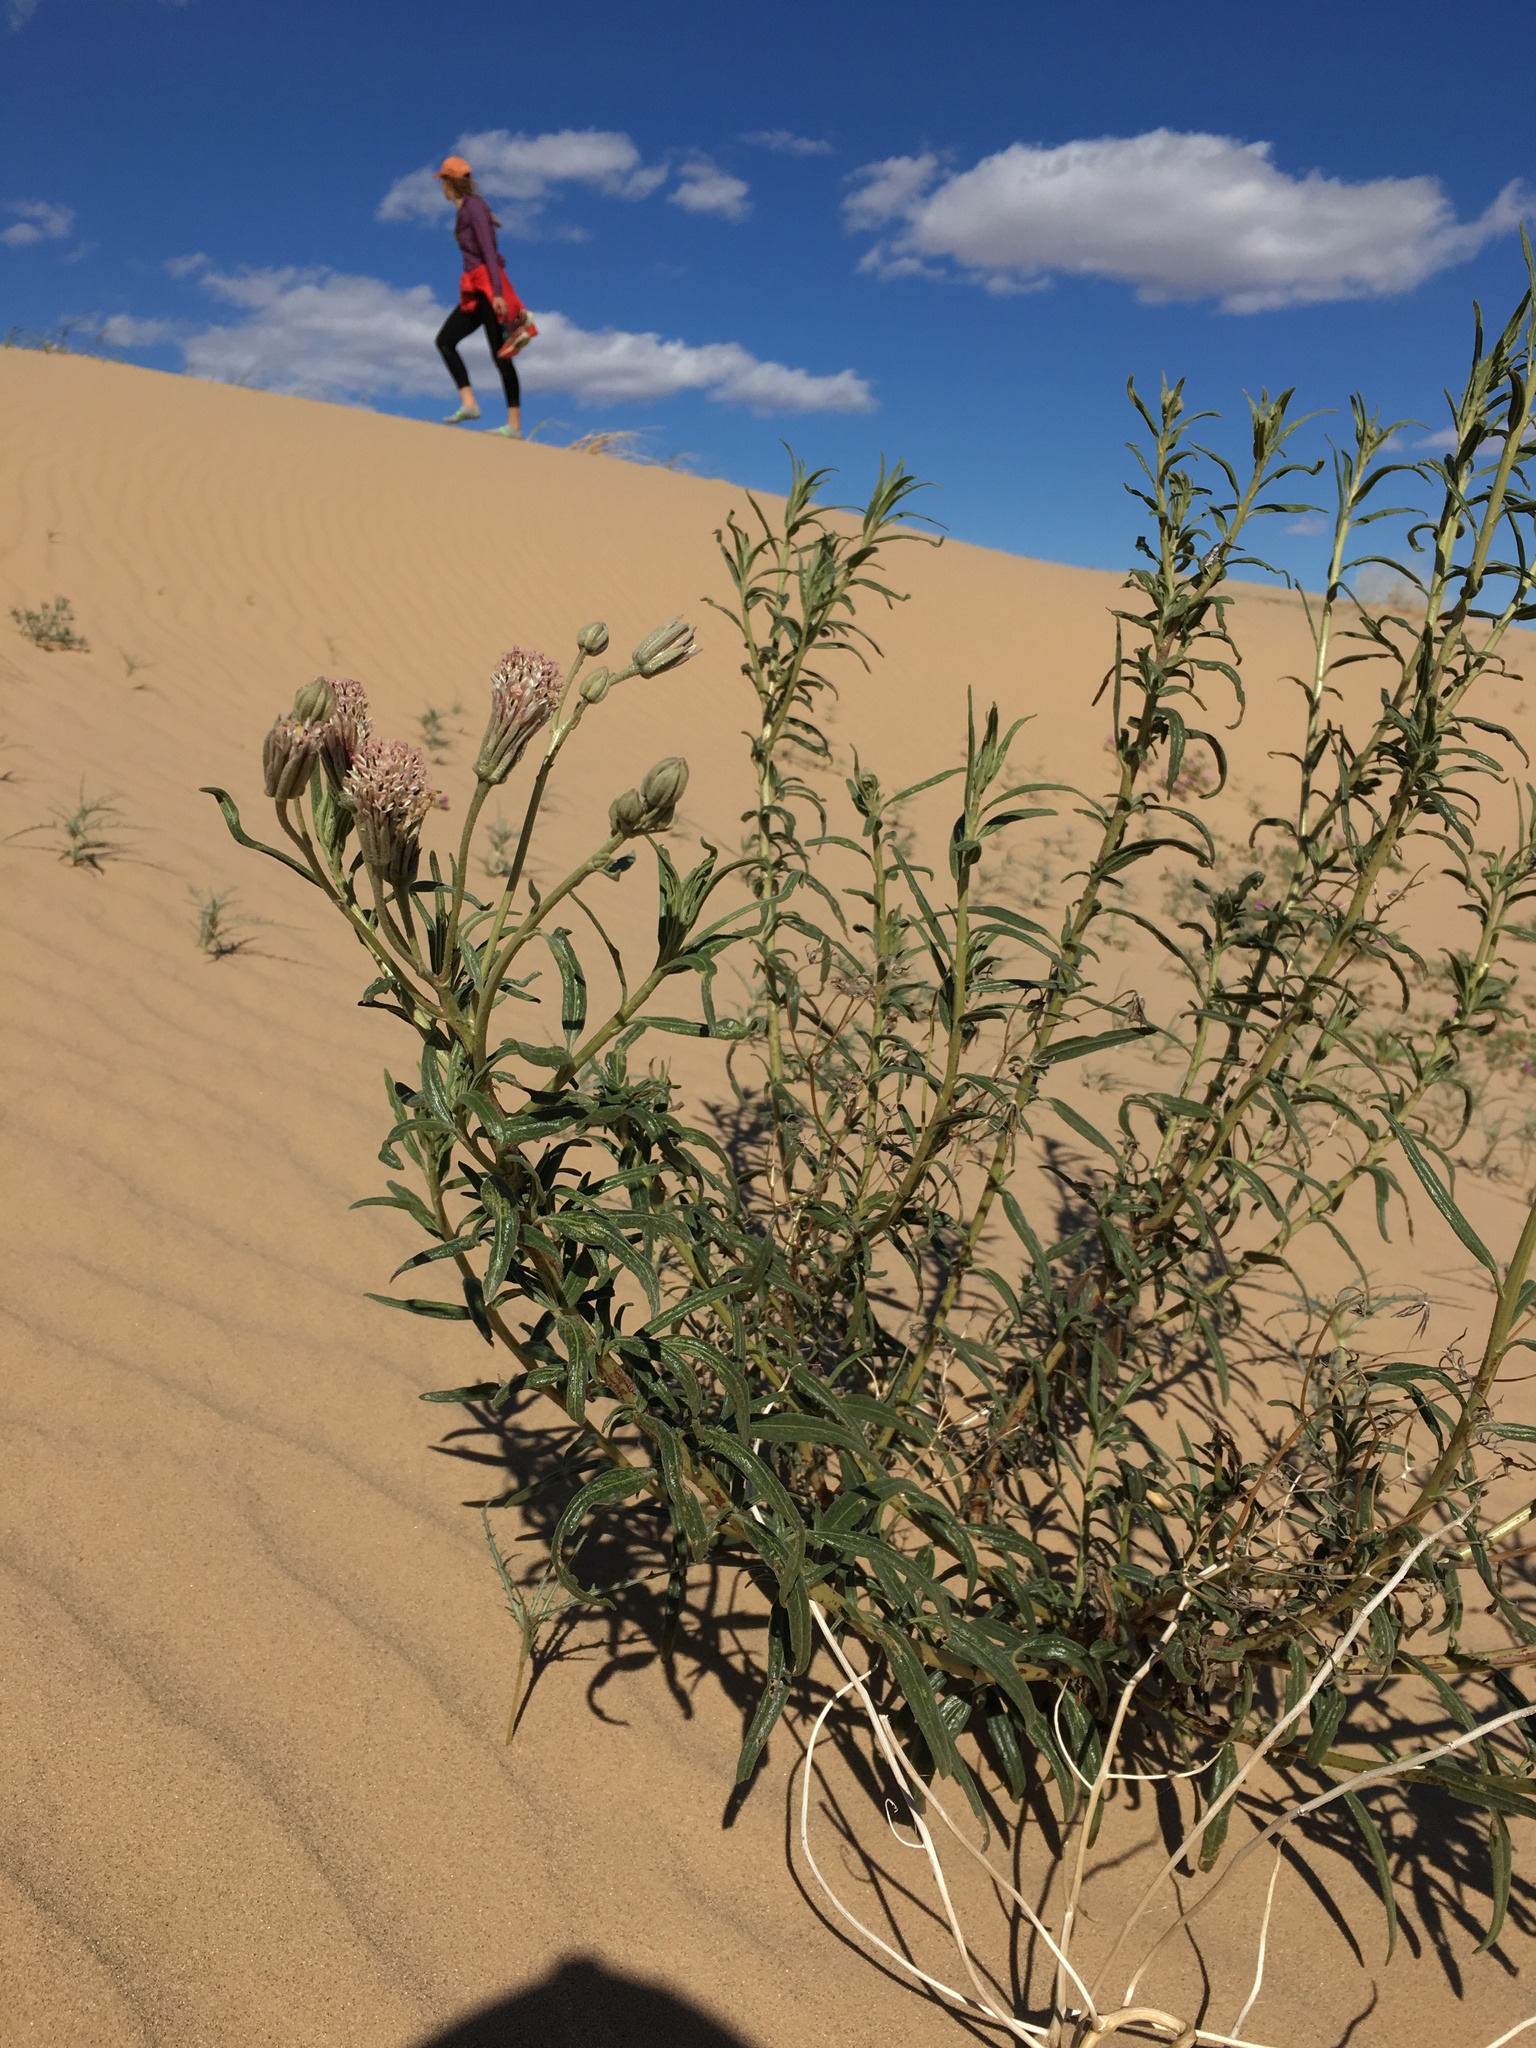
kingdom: Plantae
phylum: Tracheophyta
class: Magnoliopsida
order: Asterales
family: Asteraceae
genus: Palafoxia
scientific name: Palafoxia arida
